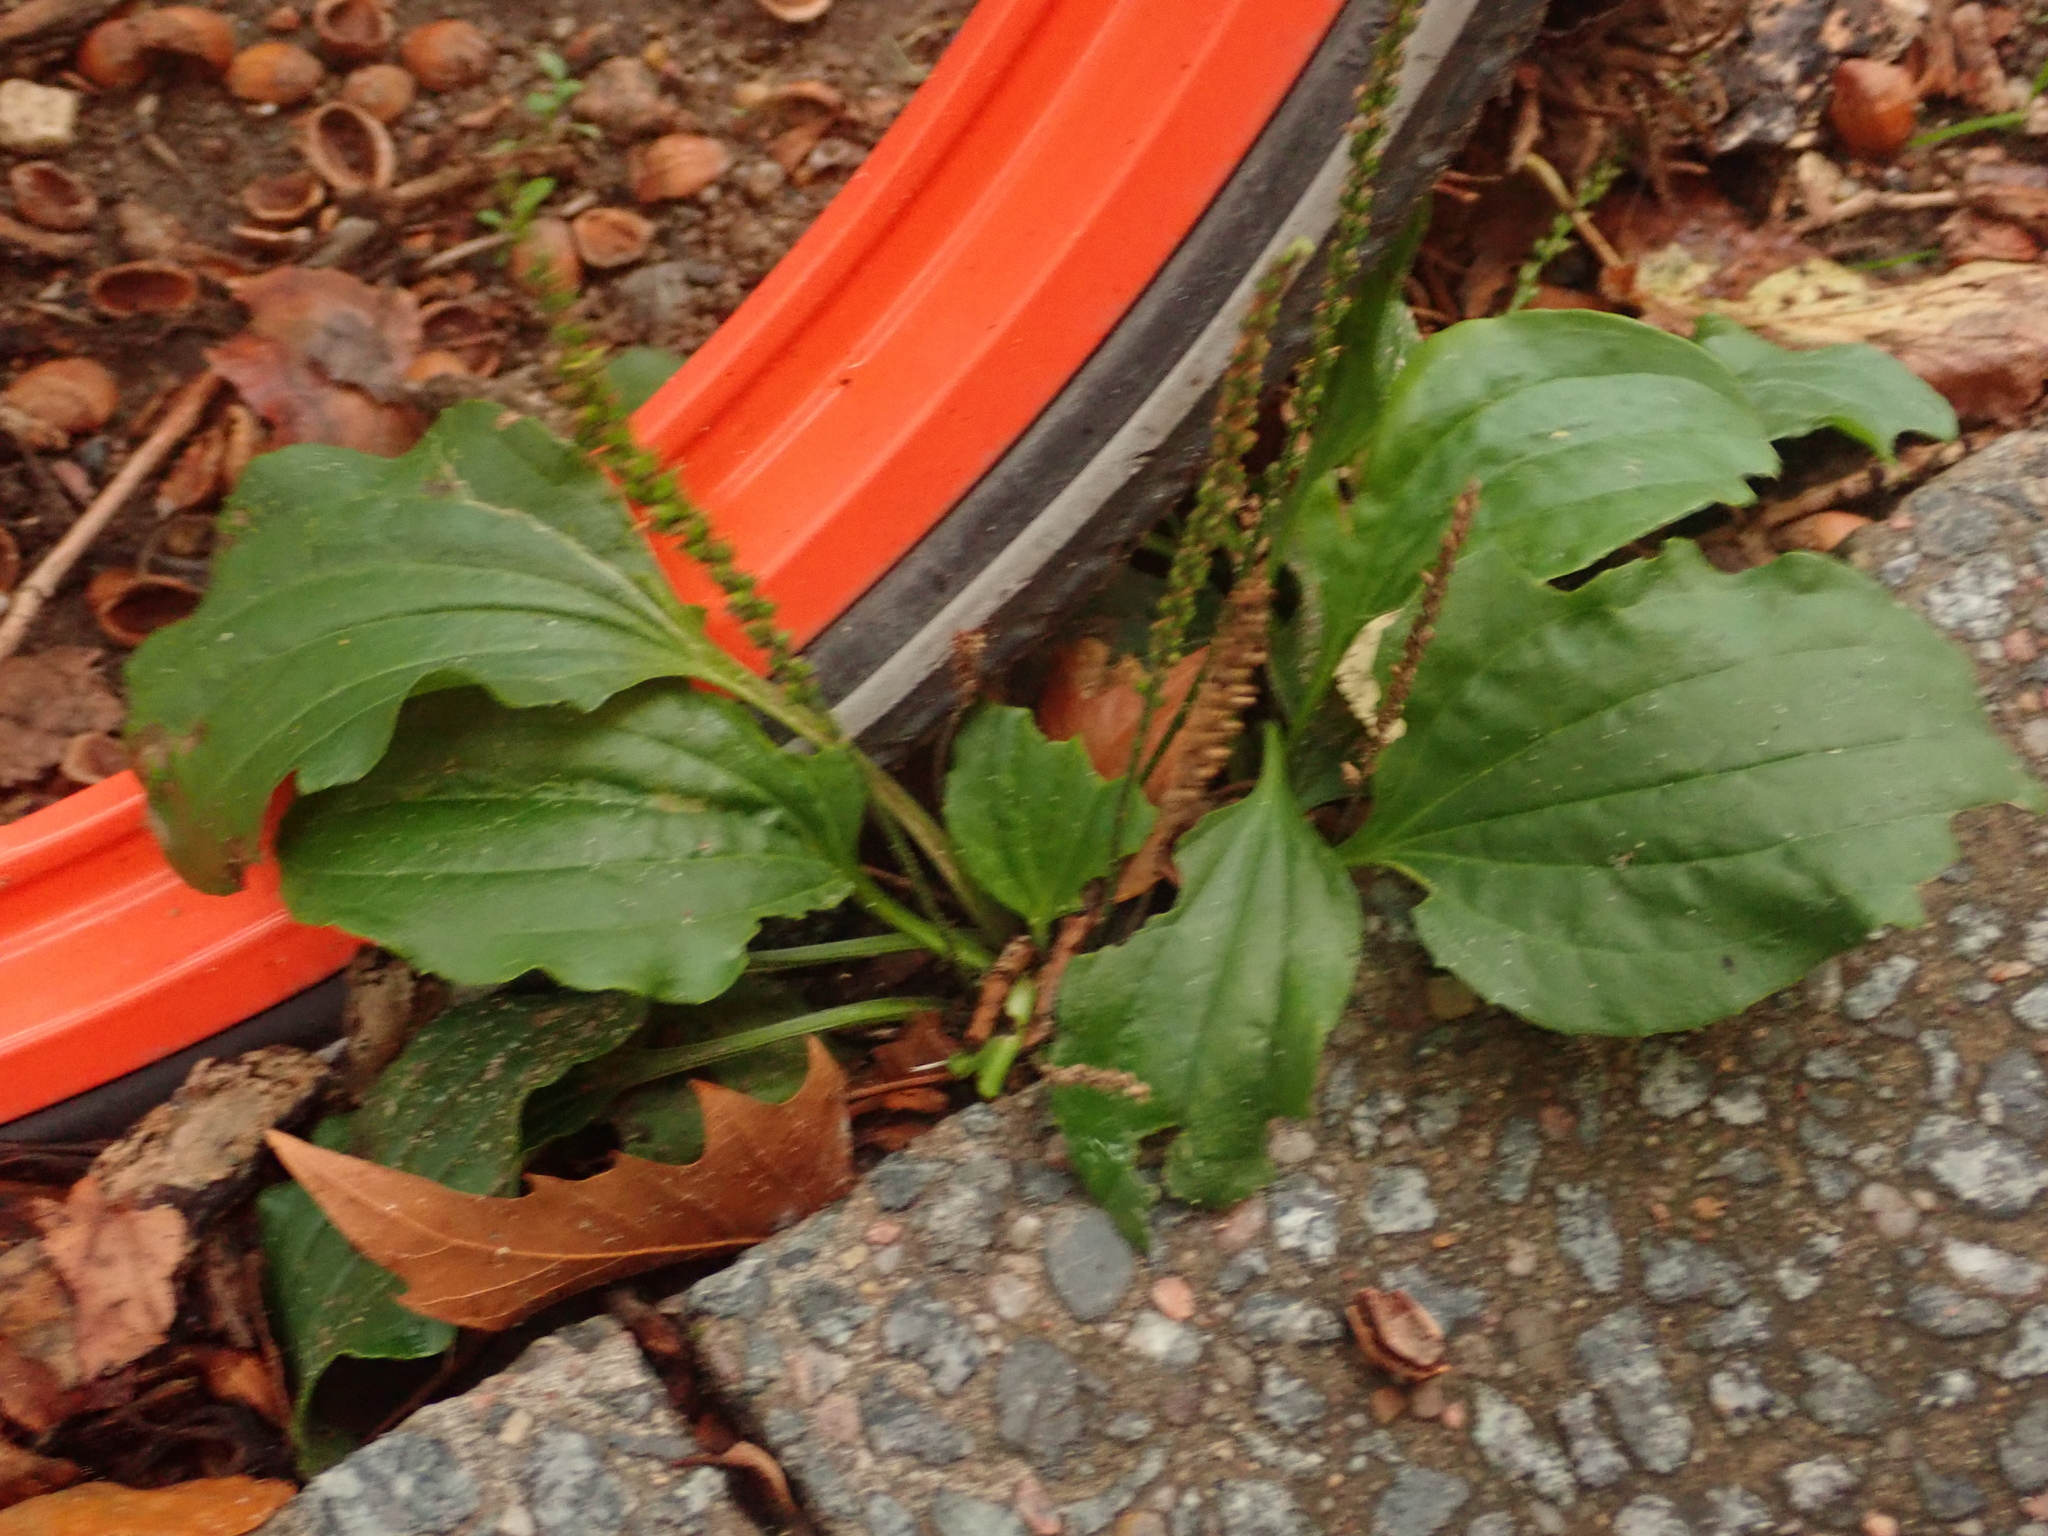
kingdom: Plantae
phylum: Tracheophyta
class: Magnoliopsida
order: Lamiales
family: Plantaginaceae
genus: Plantago
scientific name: Plantago major
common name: Common plantain
